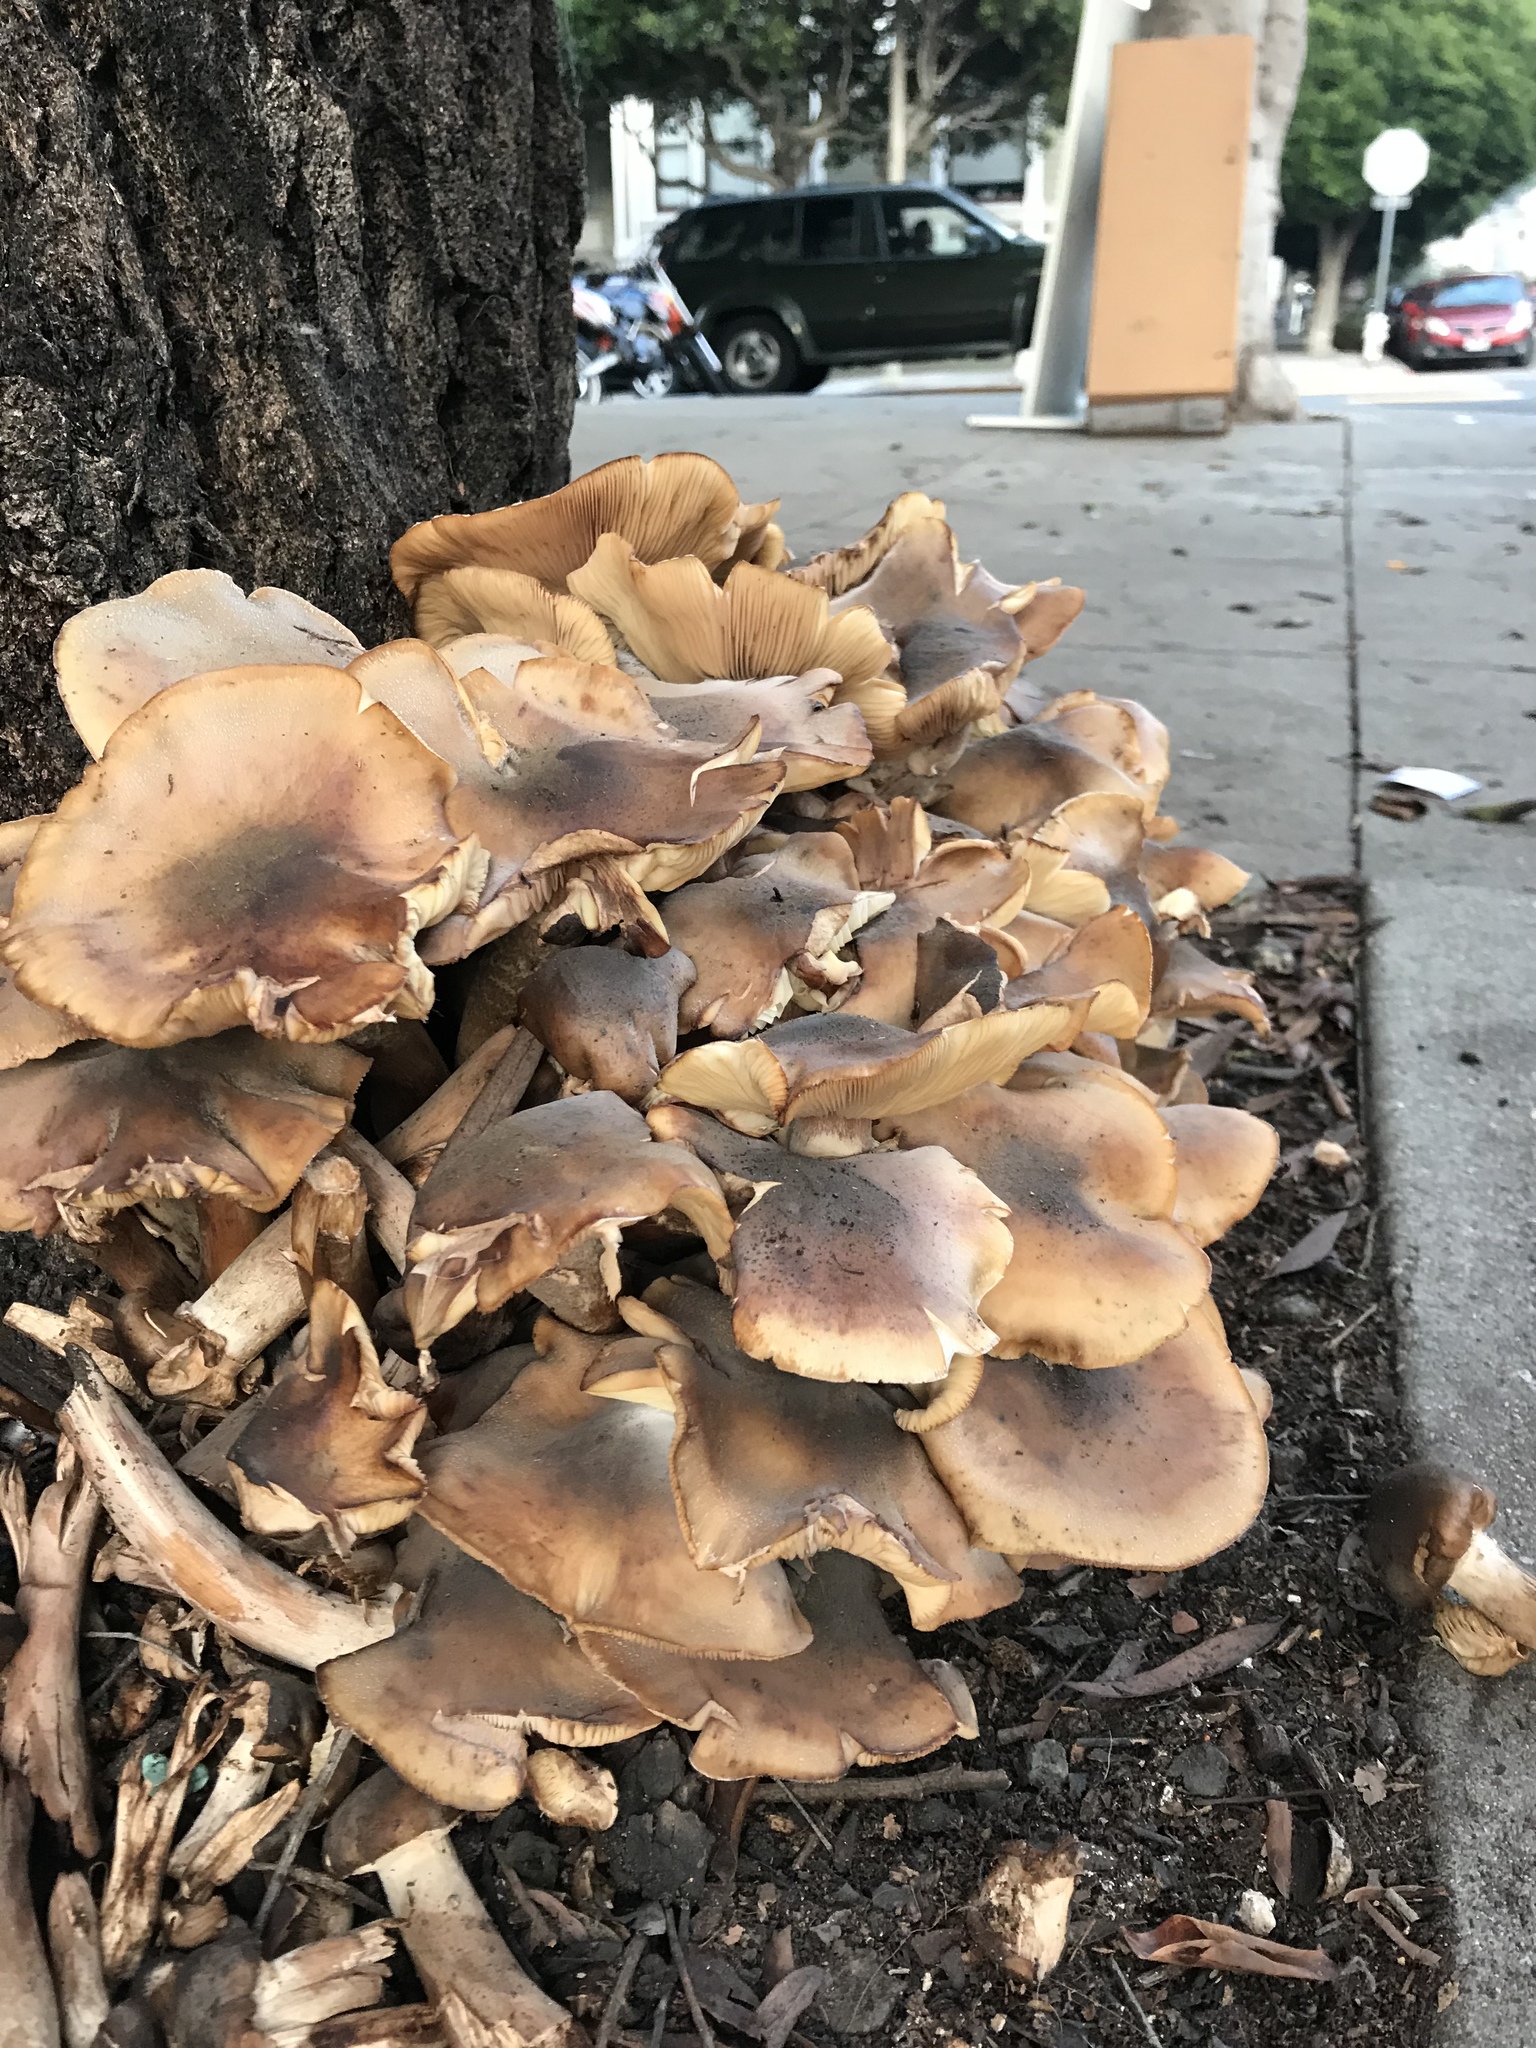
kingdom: Fungi
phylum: Basidiomycota
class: Agaricomycetes
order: Agaricales
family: Physalacriaceae
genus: Armillaria
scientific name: Armillaria mellea
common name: Honey fungus
